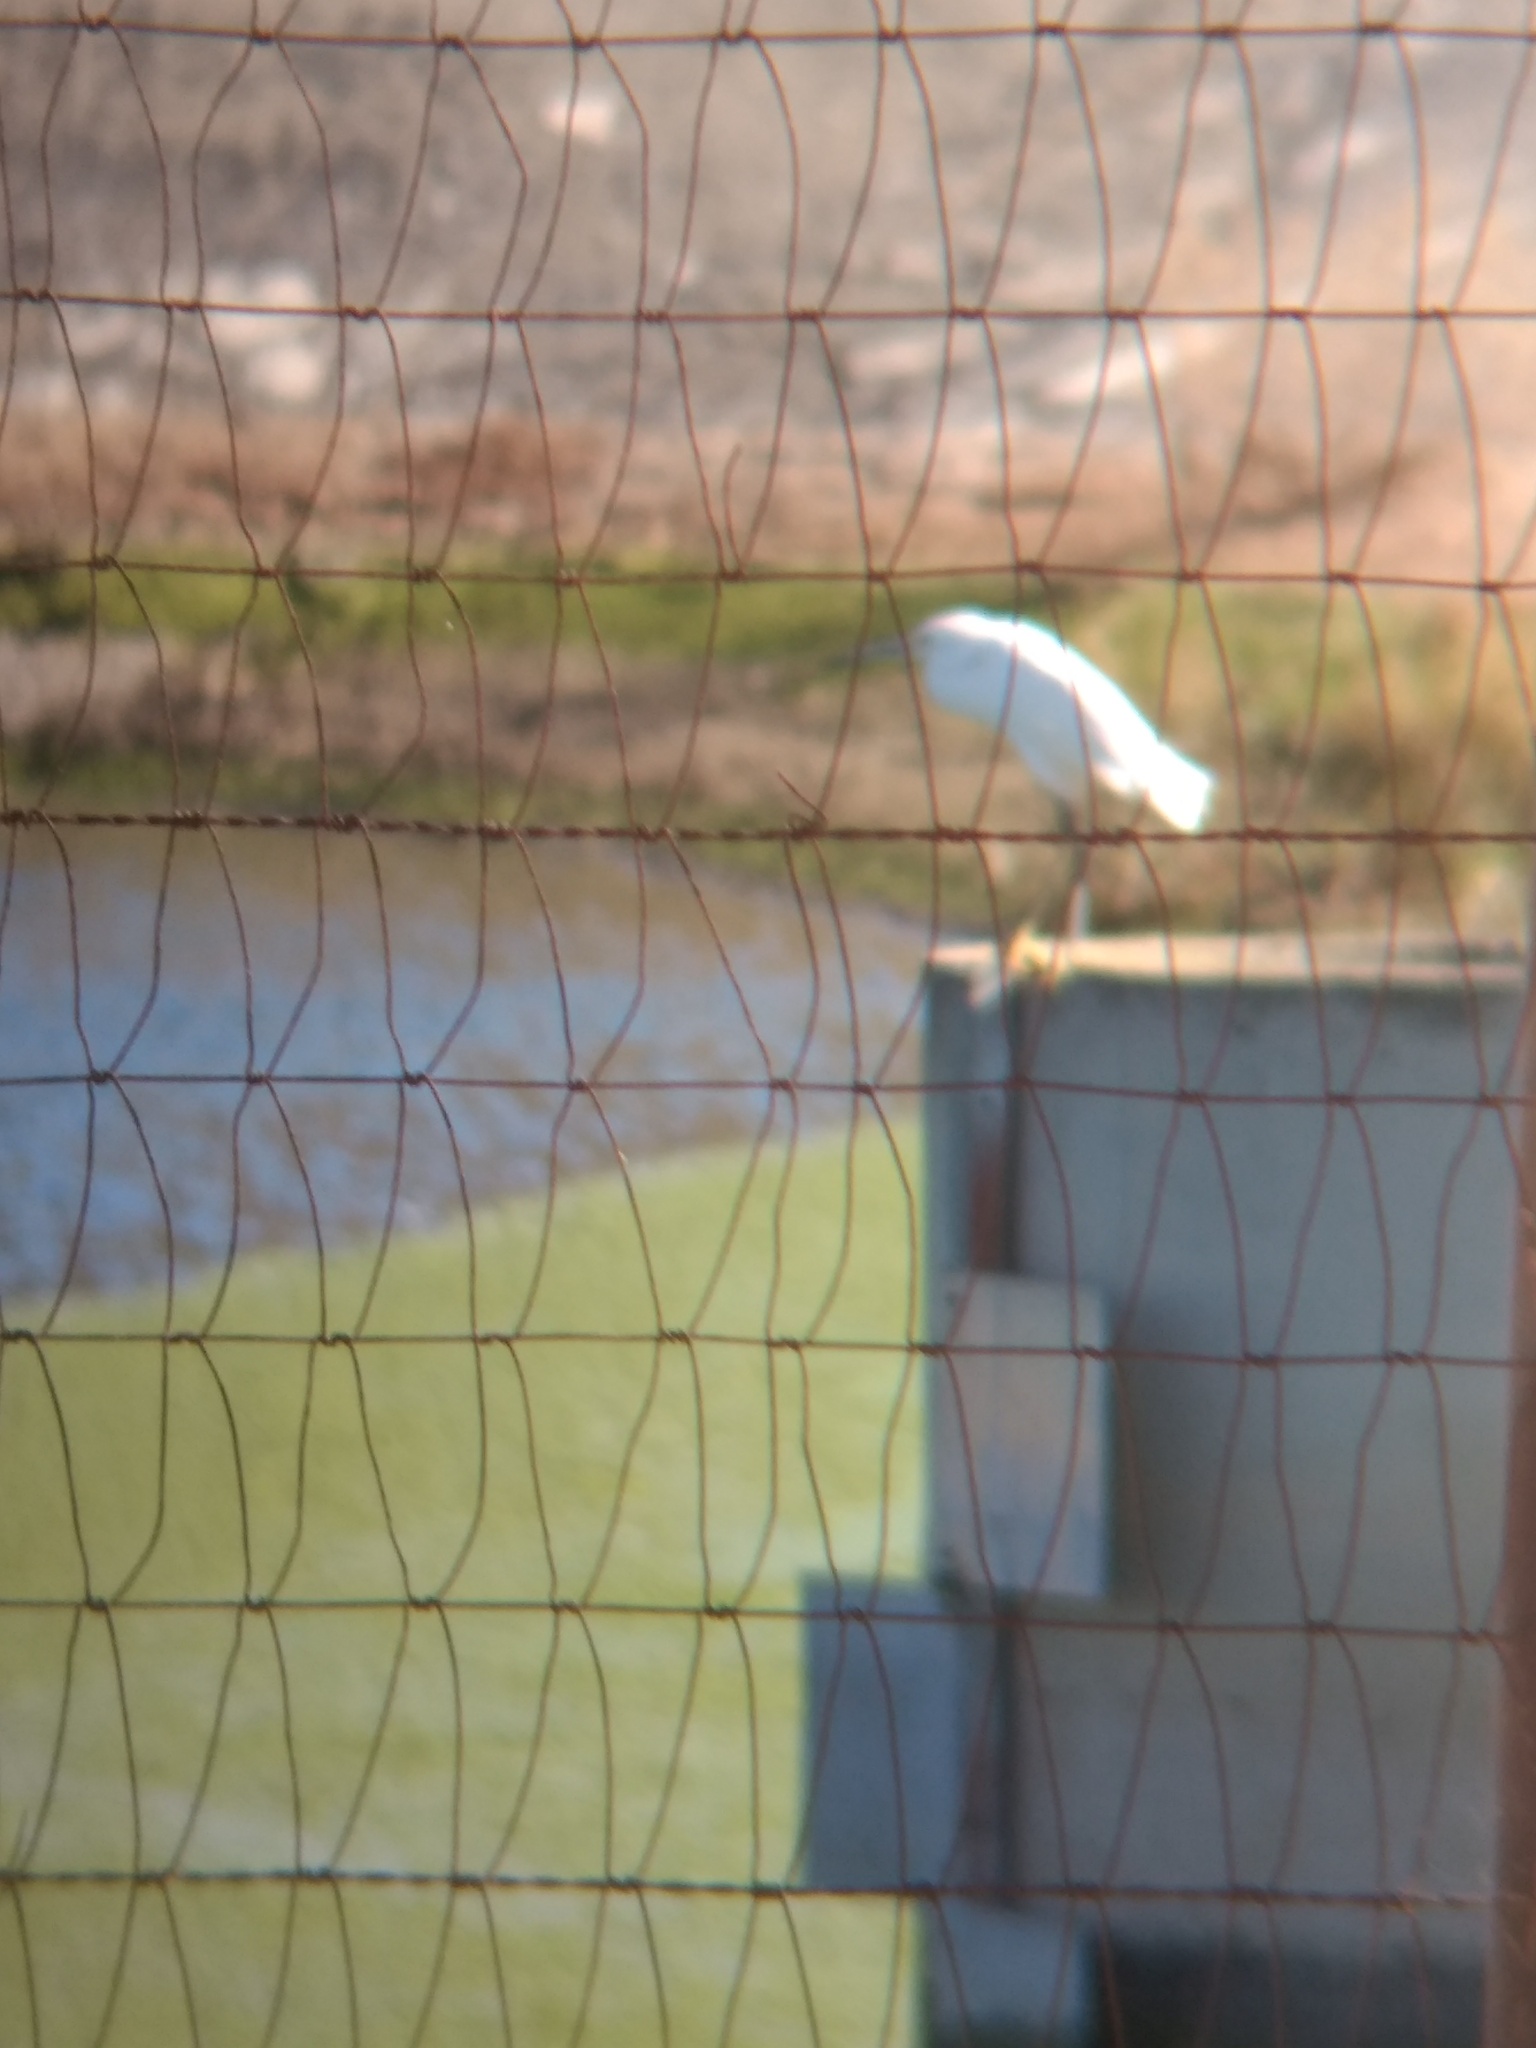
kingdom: Animalia
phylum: Chordata
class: Aves
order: Pelecaniformes
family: Ardeidae
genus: Egretta
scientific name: Egretta thula
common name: Snowy egret
